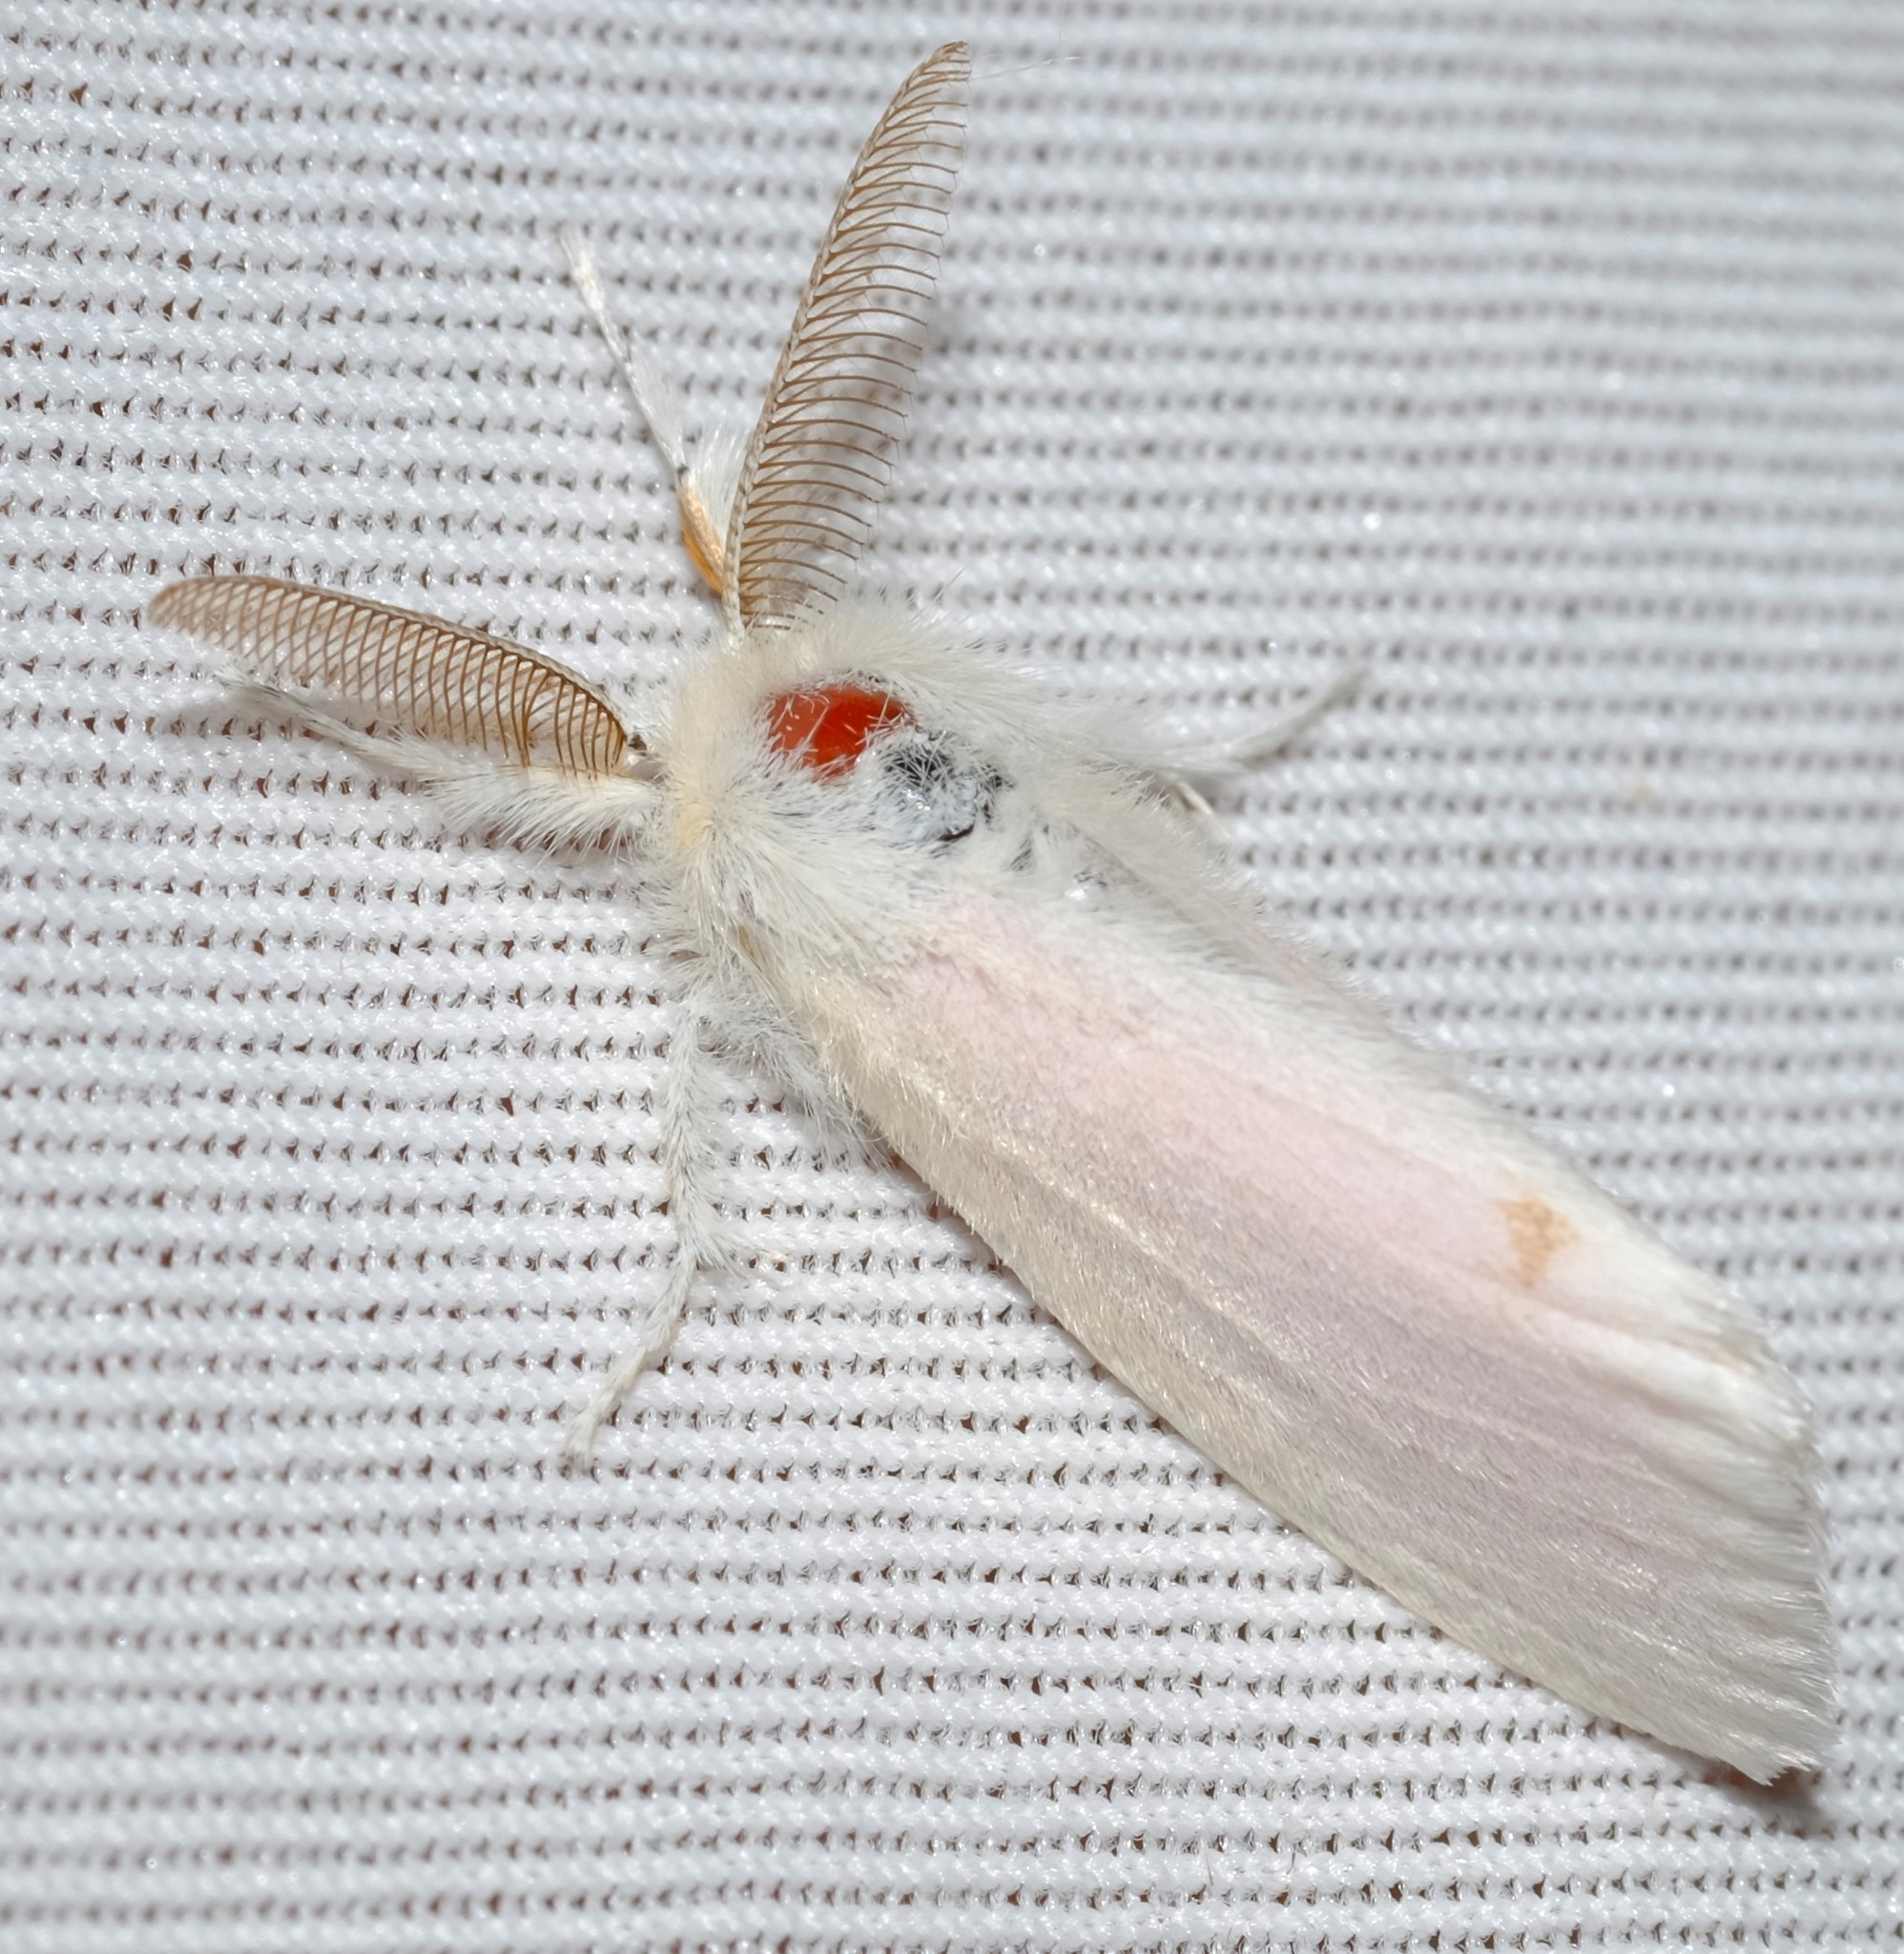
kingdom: Animalia
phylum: Arthropoda
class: Insecta
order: Lepidoptera
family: Erebidae
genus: Acyphas
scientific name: Acyphas semiochrea
